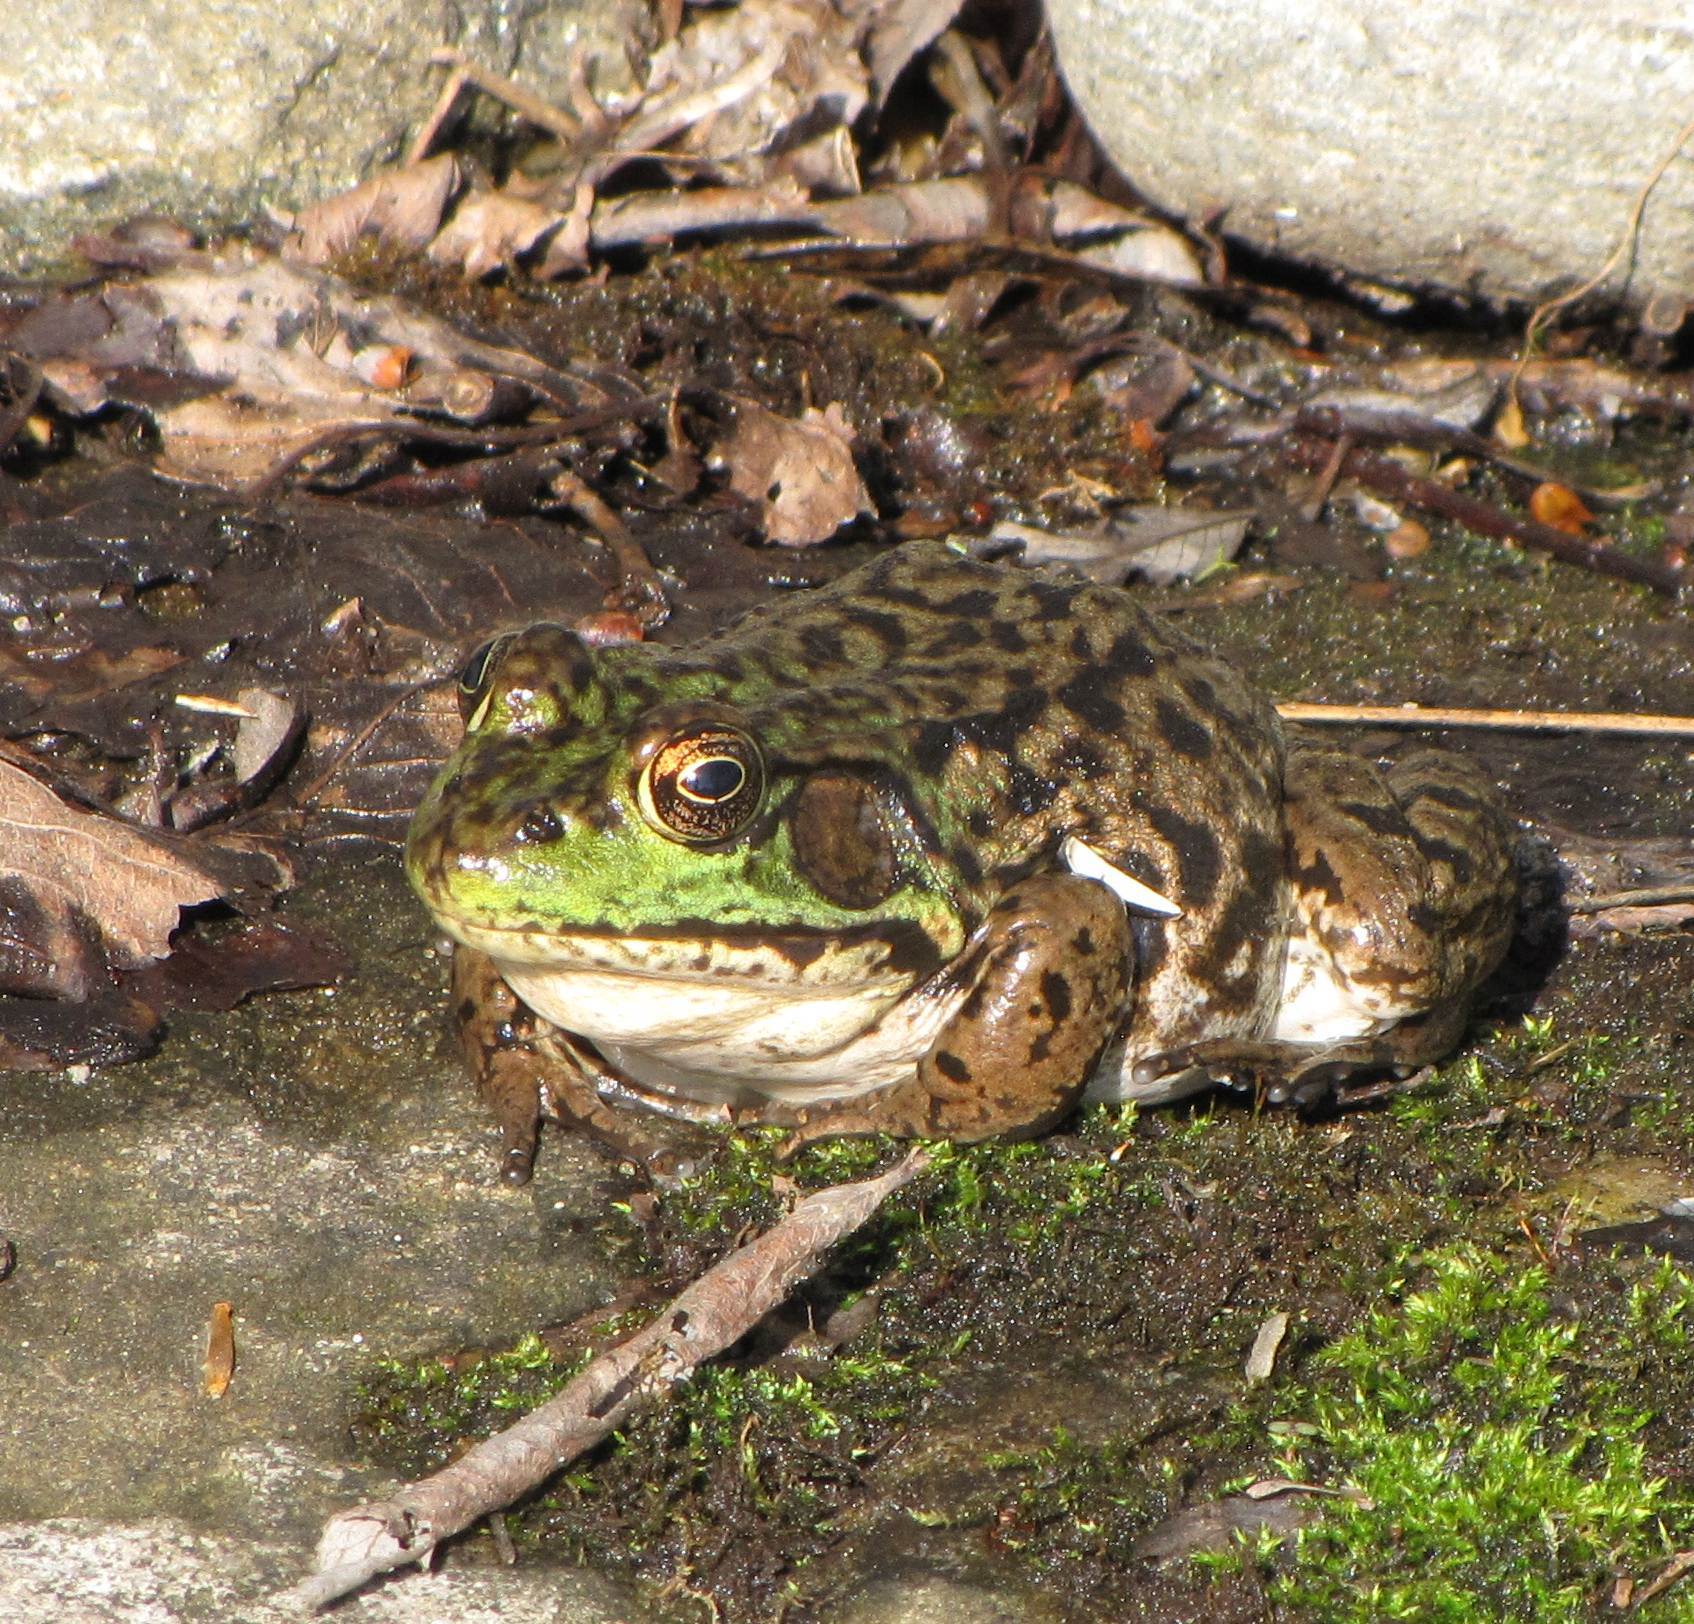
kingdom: Animalia
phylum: Chordata
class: Amphibia
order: Anura
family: Ranidae
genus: Lithobates
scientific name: Lithobates clamitans
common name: Green frog
